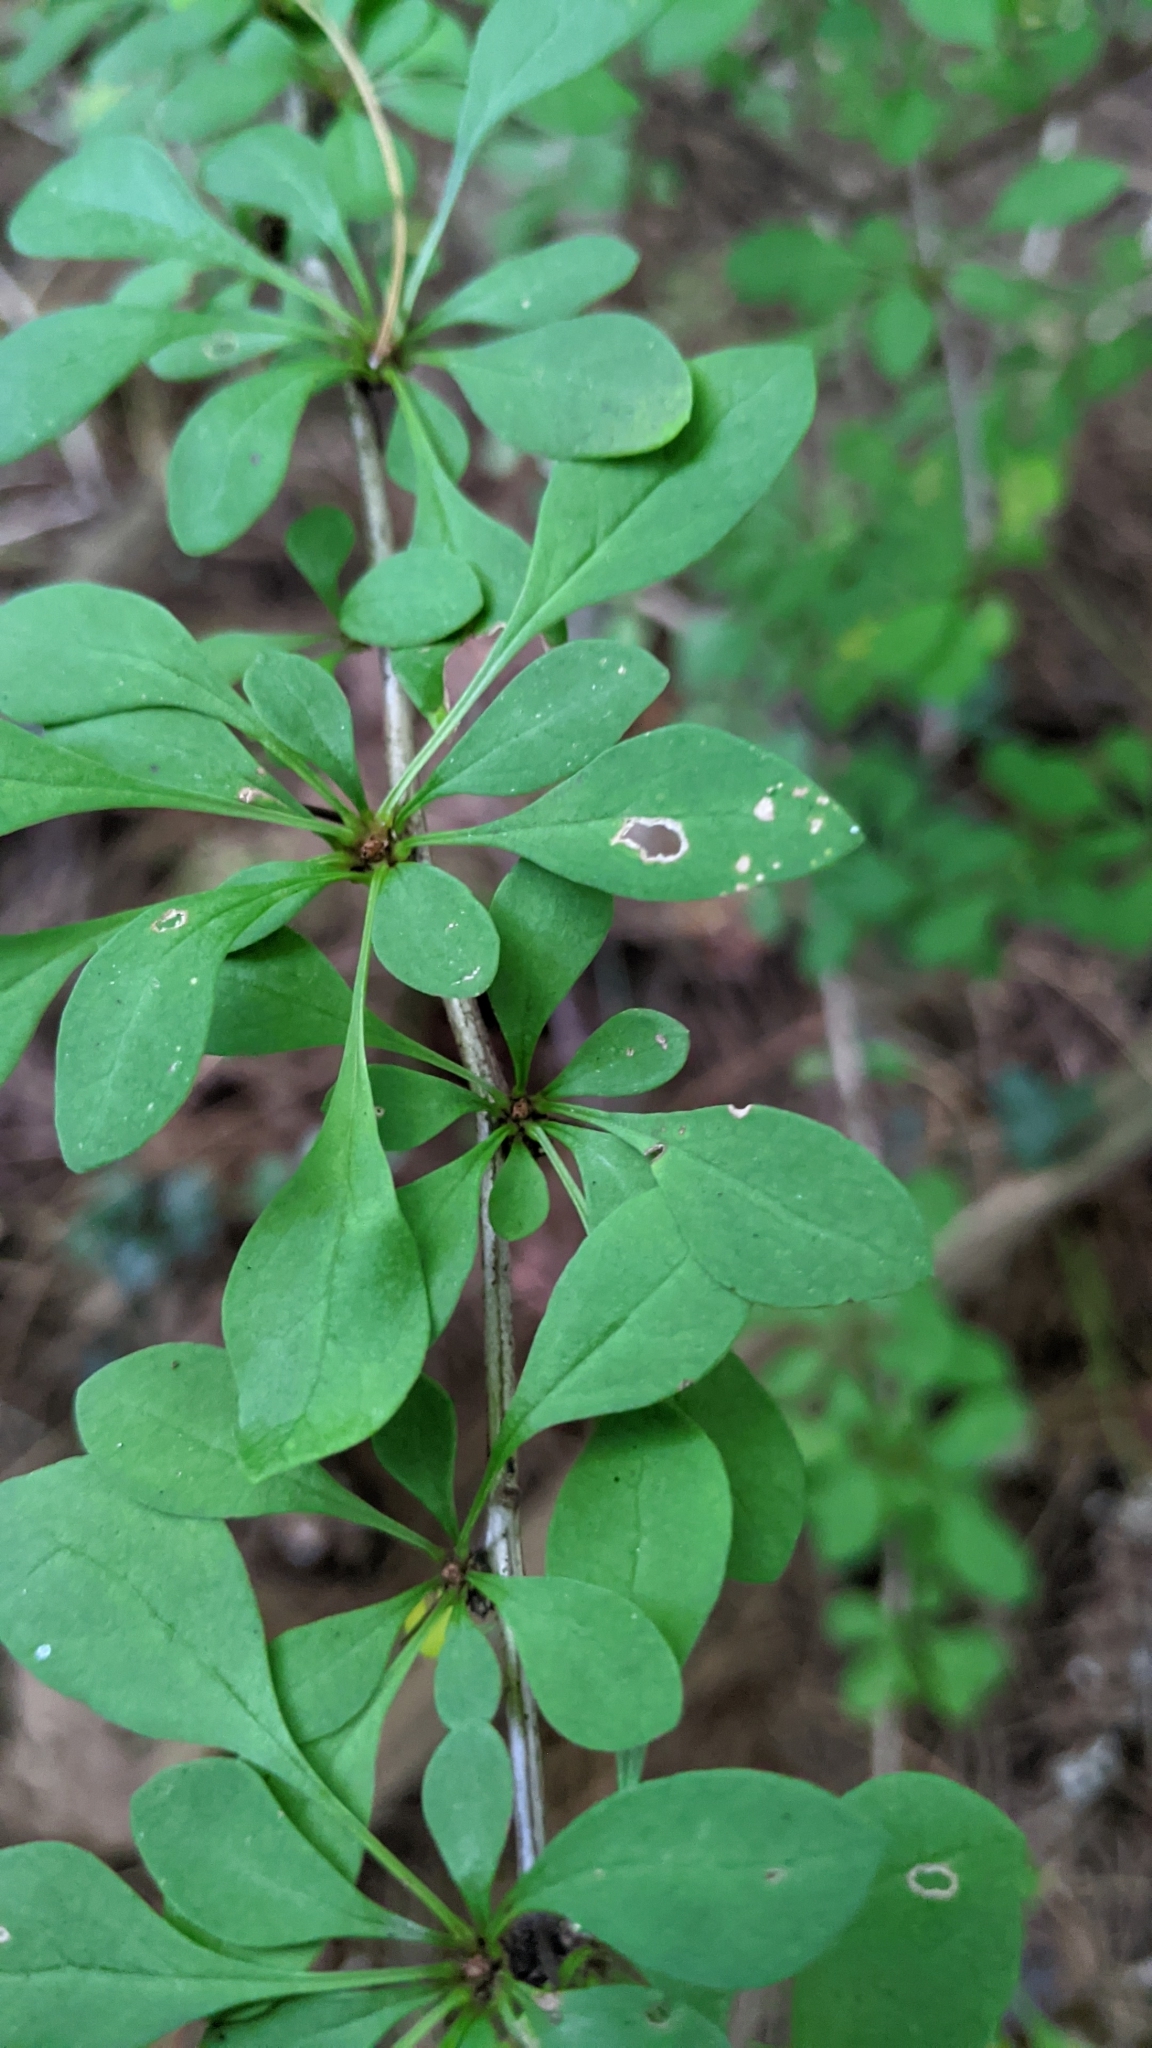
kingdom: Plantae
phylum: Tracheophyta
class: Magnoliopsida
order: Ranunculales
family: Berberidaceae
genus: Berberis
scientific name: Berberis thunbergii
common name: Japanese barberry
